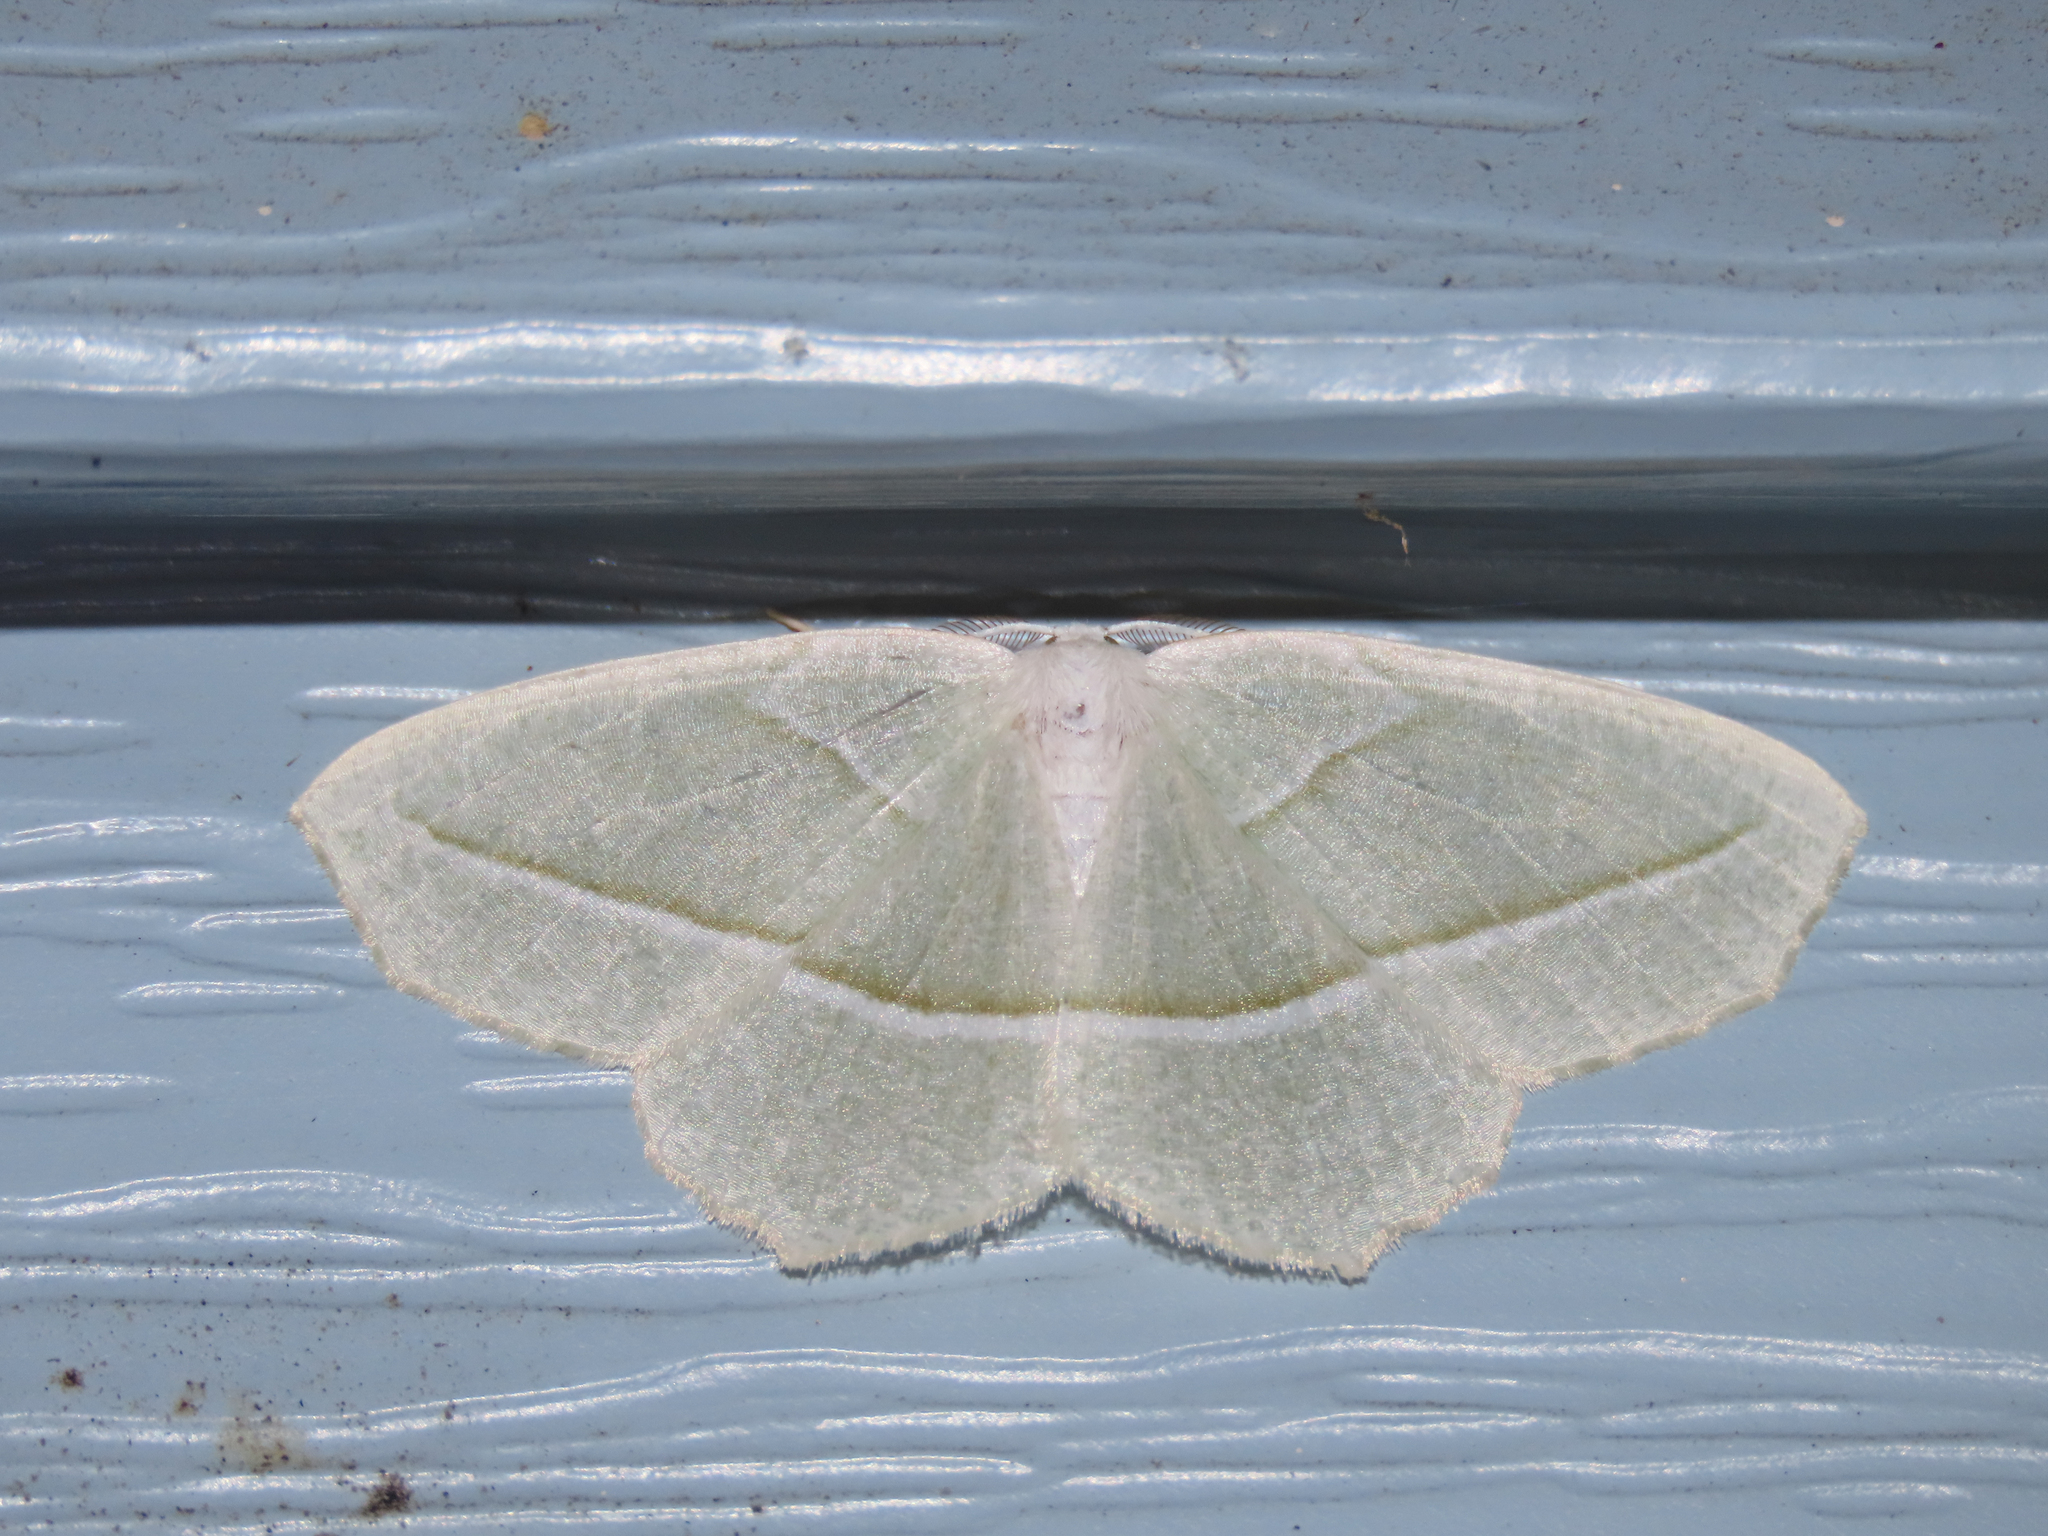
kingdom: Animalia
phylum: Arthropoda
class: Insecta
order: Lepidoptera
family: Geometridae
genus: Campaea
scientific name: Campaea perlata
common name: Fringed looper
